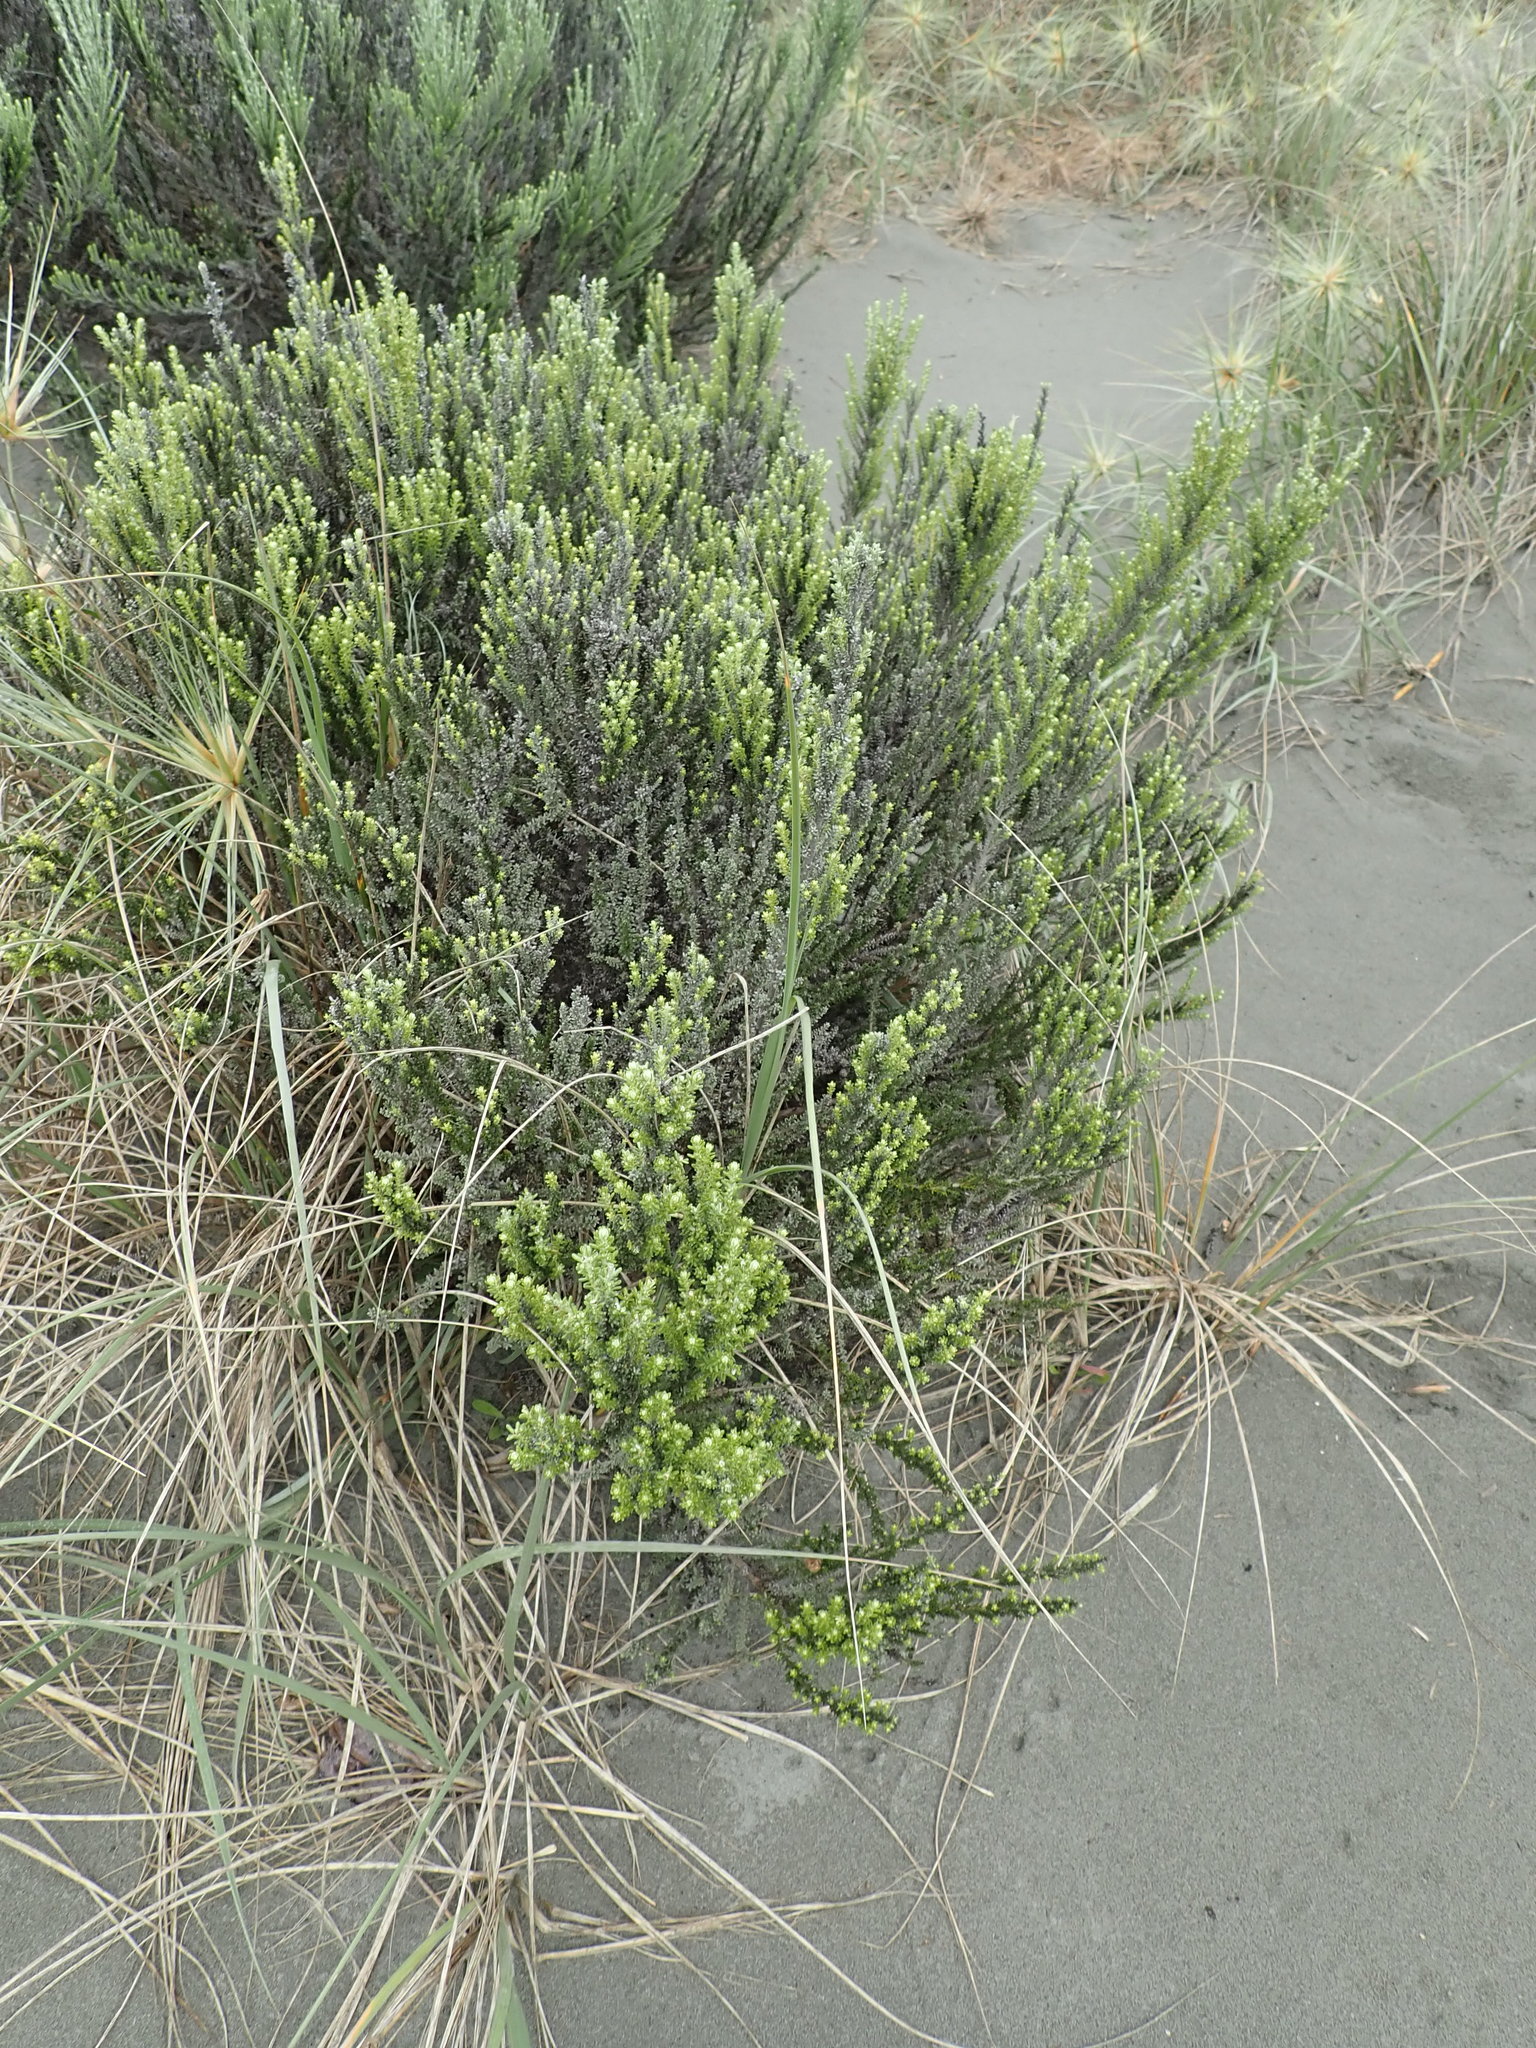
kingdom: Plantae
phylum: Tracheophyta
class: Magnoliopsida
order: Asterales
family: Asteraceae
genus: Ozothamnus
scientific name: Ozothamnus leptophyllus
